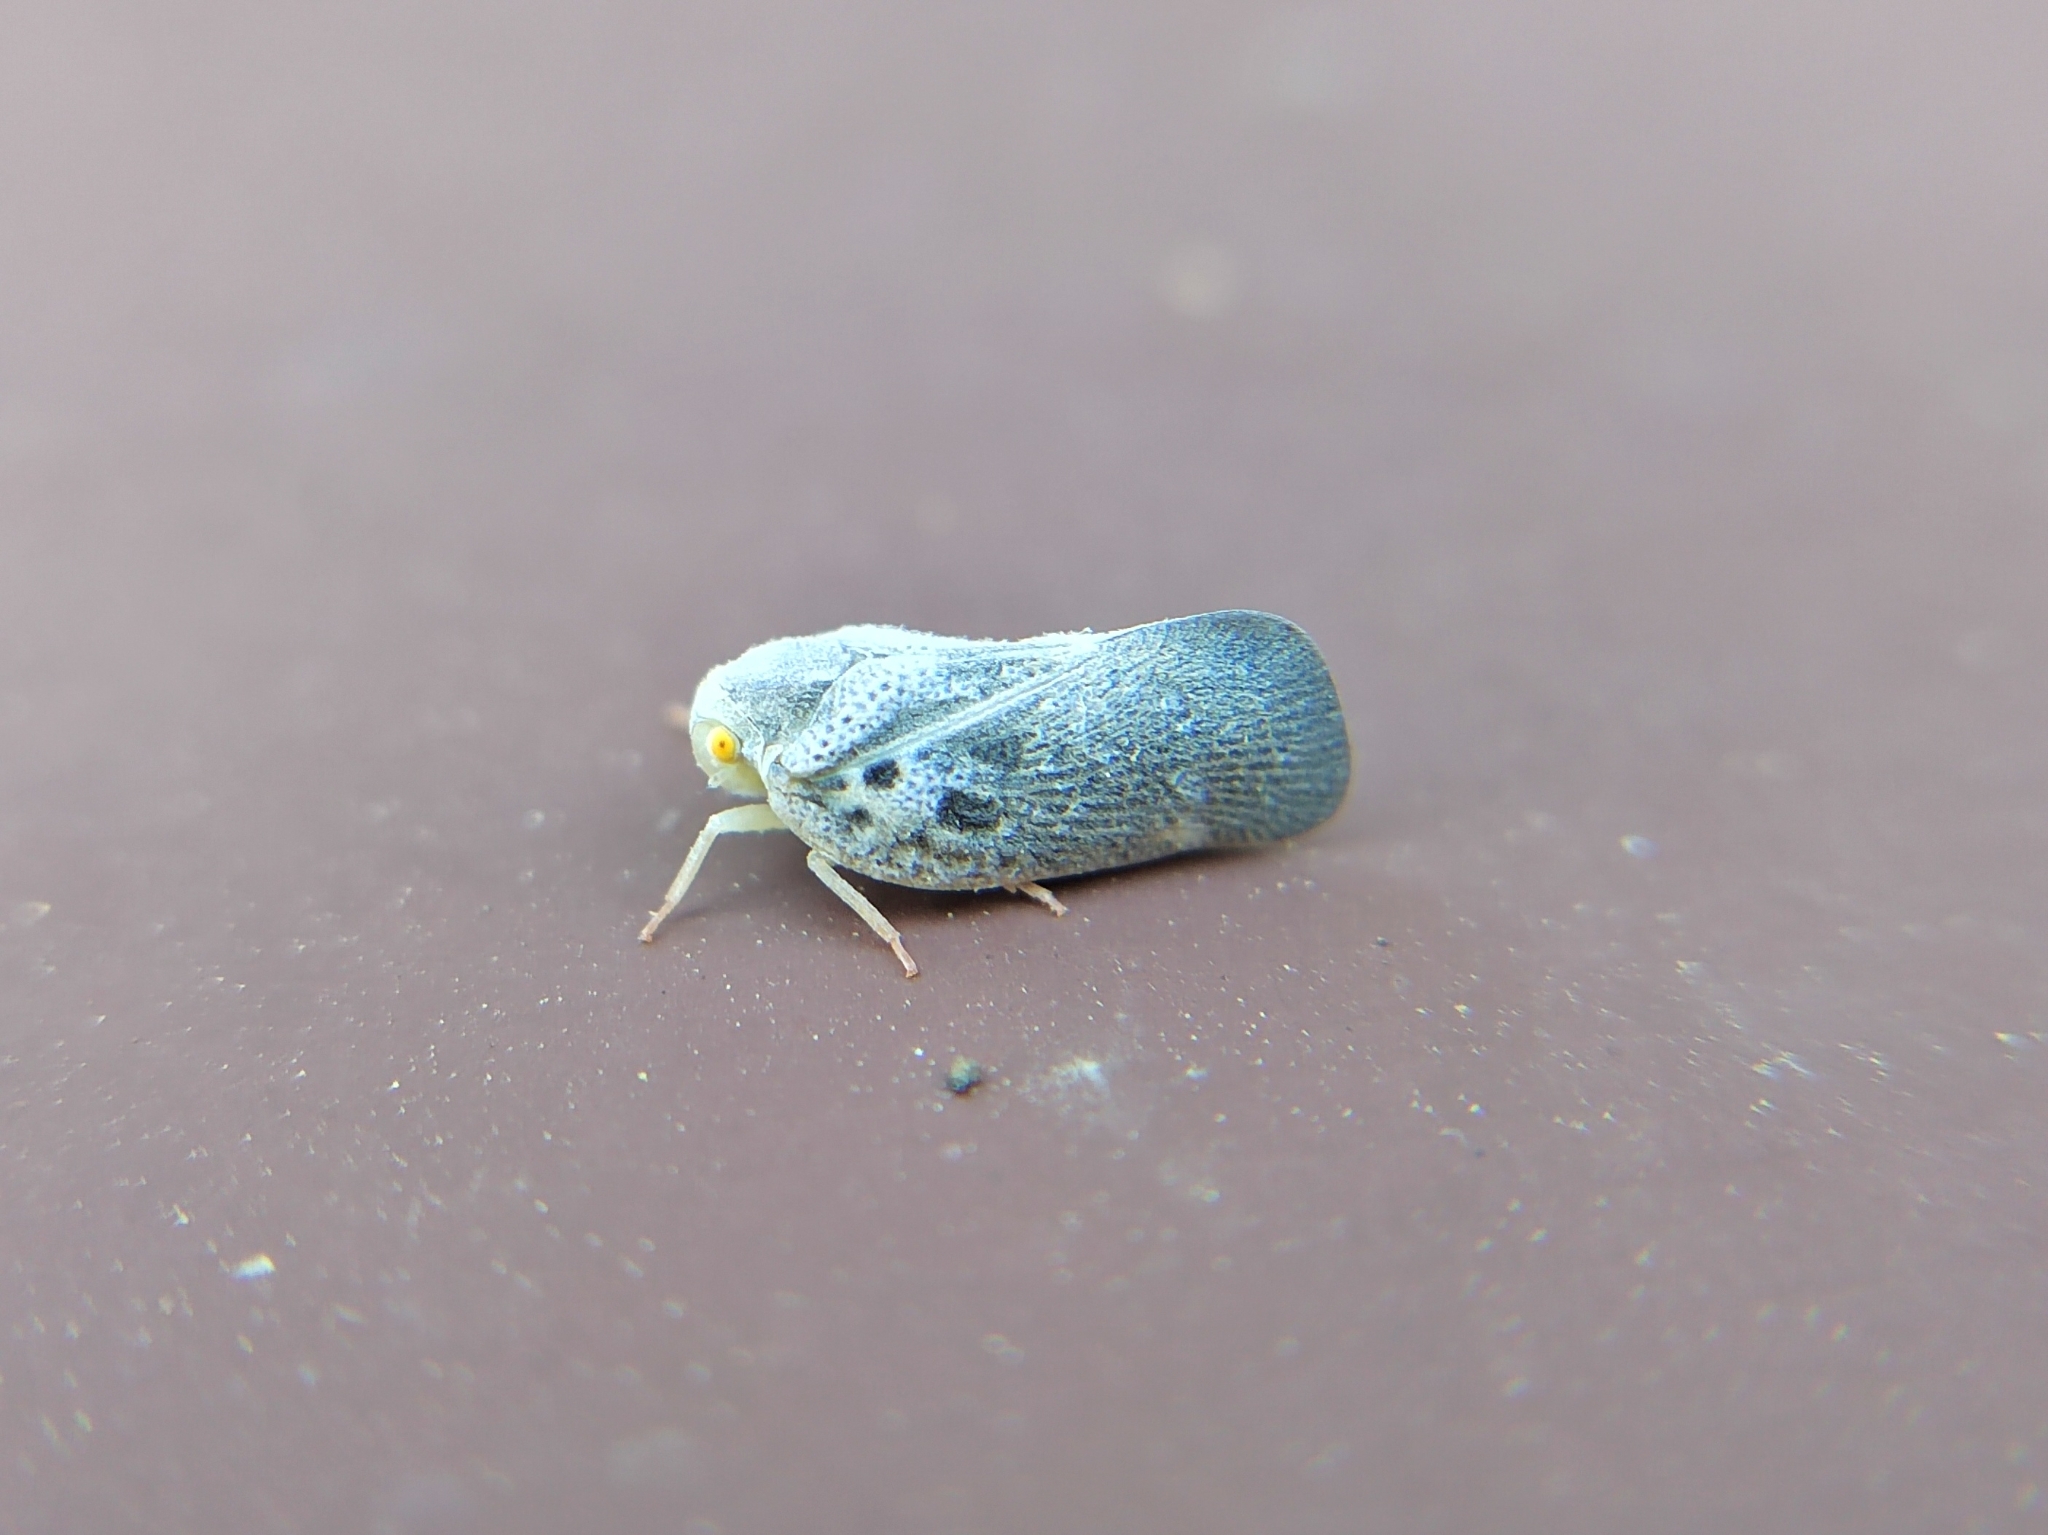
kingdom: Animalia
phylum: Arthropoda
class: Insecta
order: Hemiptera
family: Flatidae
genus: Metcalfa
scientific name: Metcalfa pruinosa
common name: Citrus flatid planthopper
